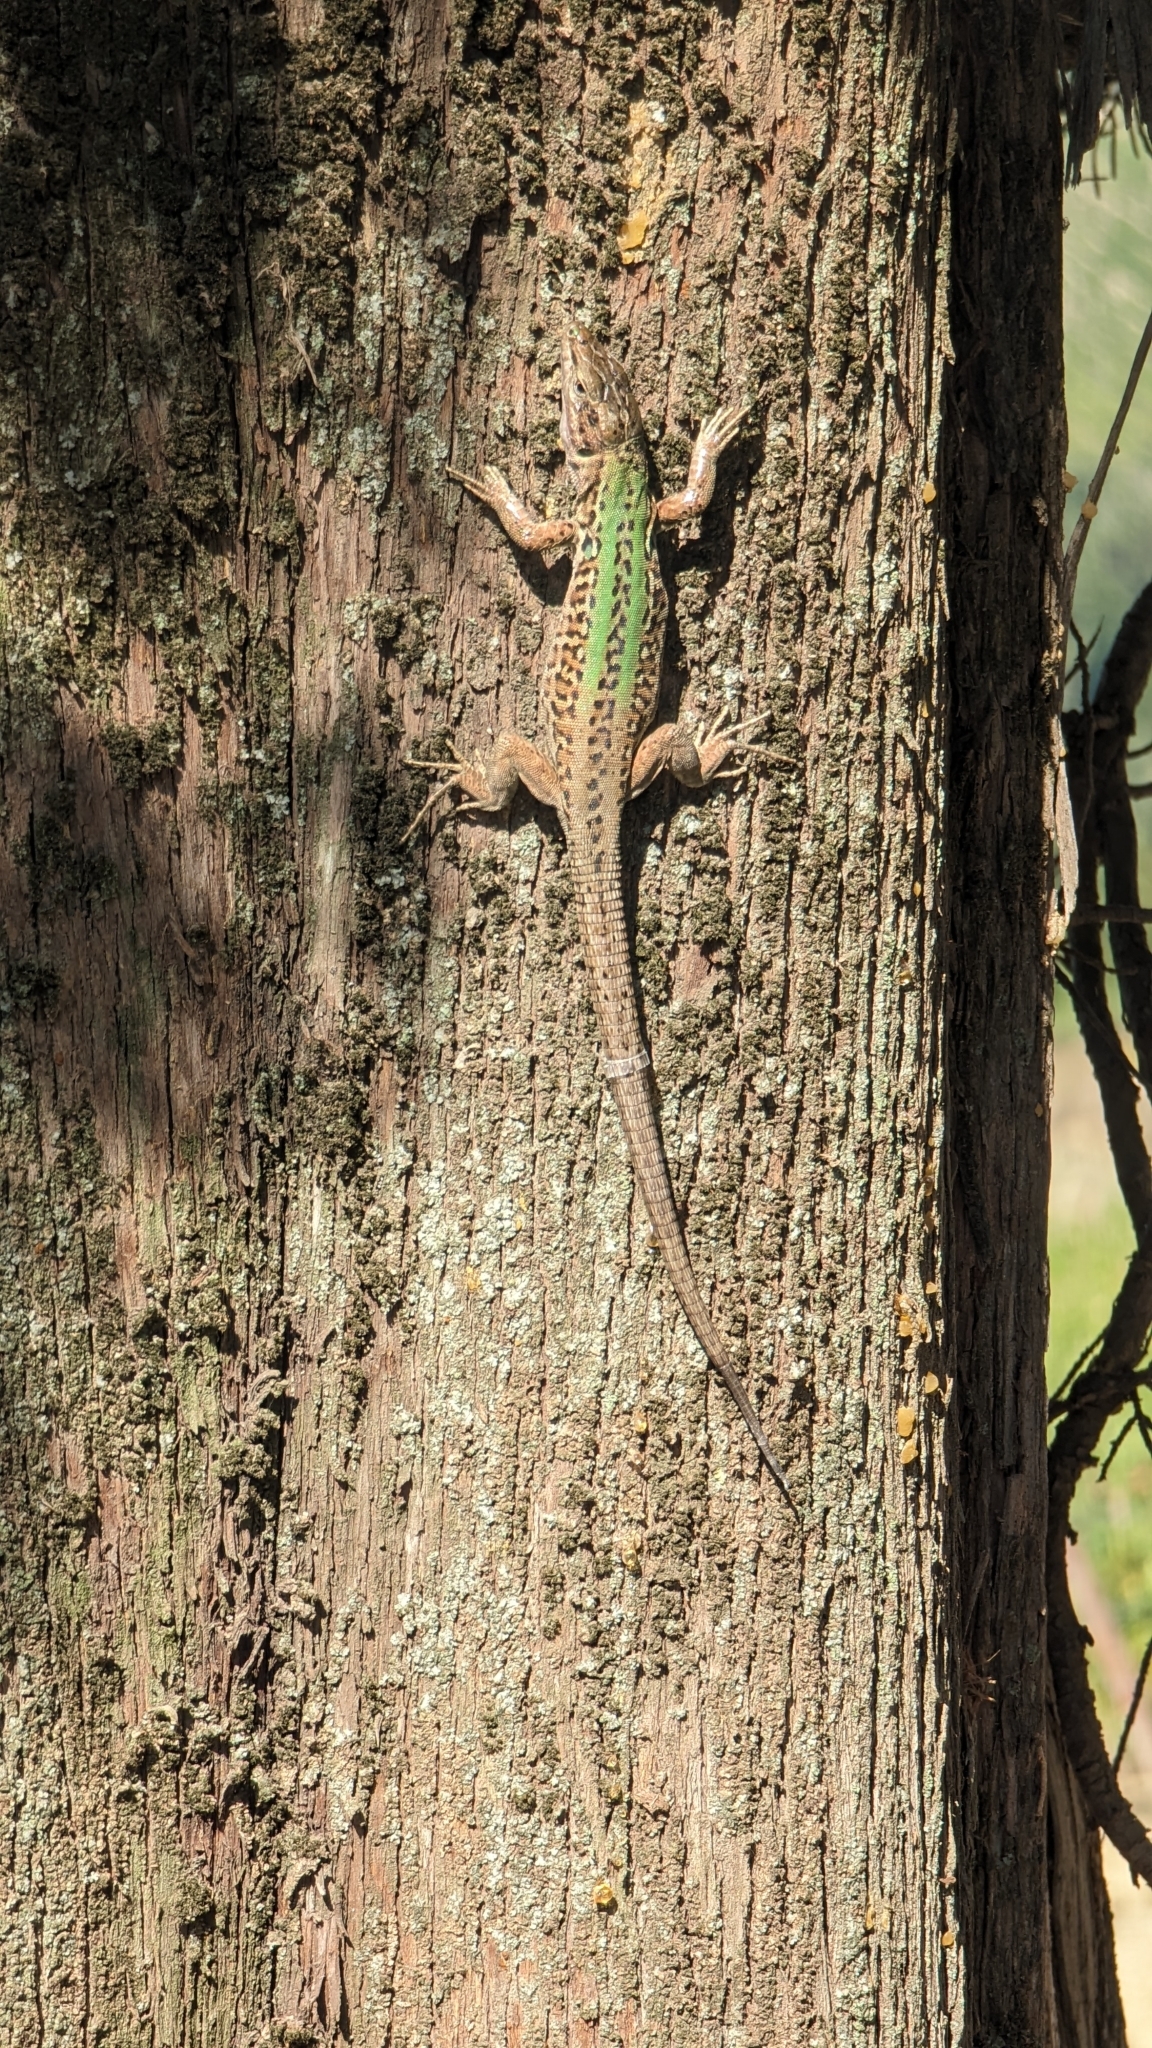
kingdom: Animalia
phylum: Chordata
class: Squamata
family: Lacertidae
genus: Podarcis
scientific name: Podarcis siculus
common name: Italian wall lizard
